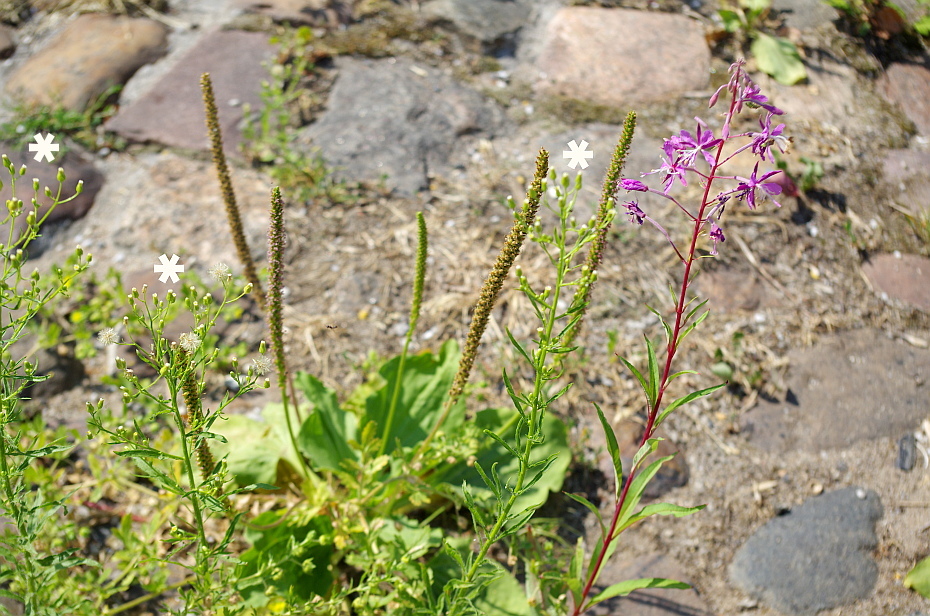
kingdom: Plantae
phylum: Tracheophyta
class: Magnoliopsida
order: Asterales
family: Asteraceae
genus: Erigeron
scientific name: Erigeron canadensis
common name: Canadian fleabane
